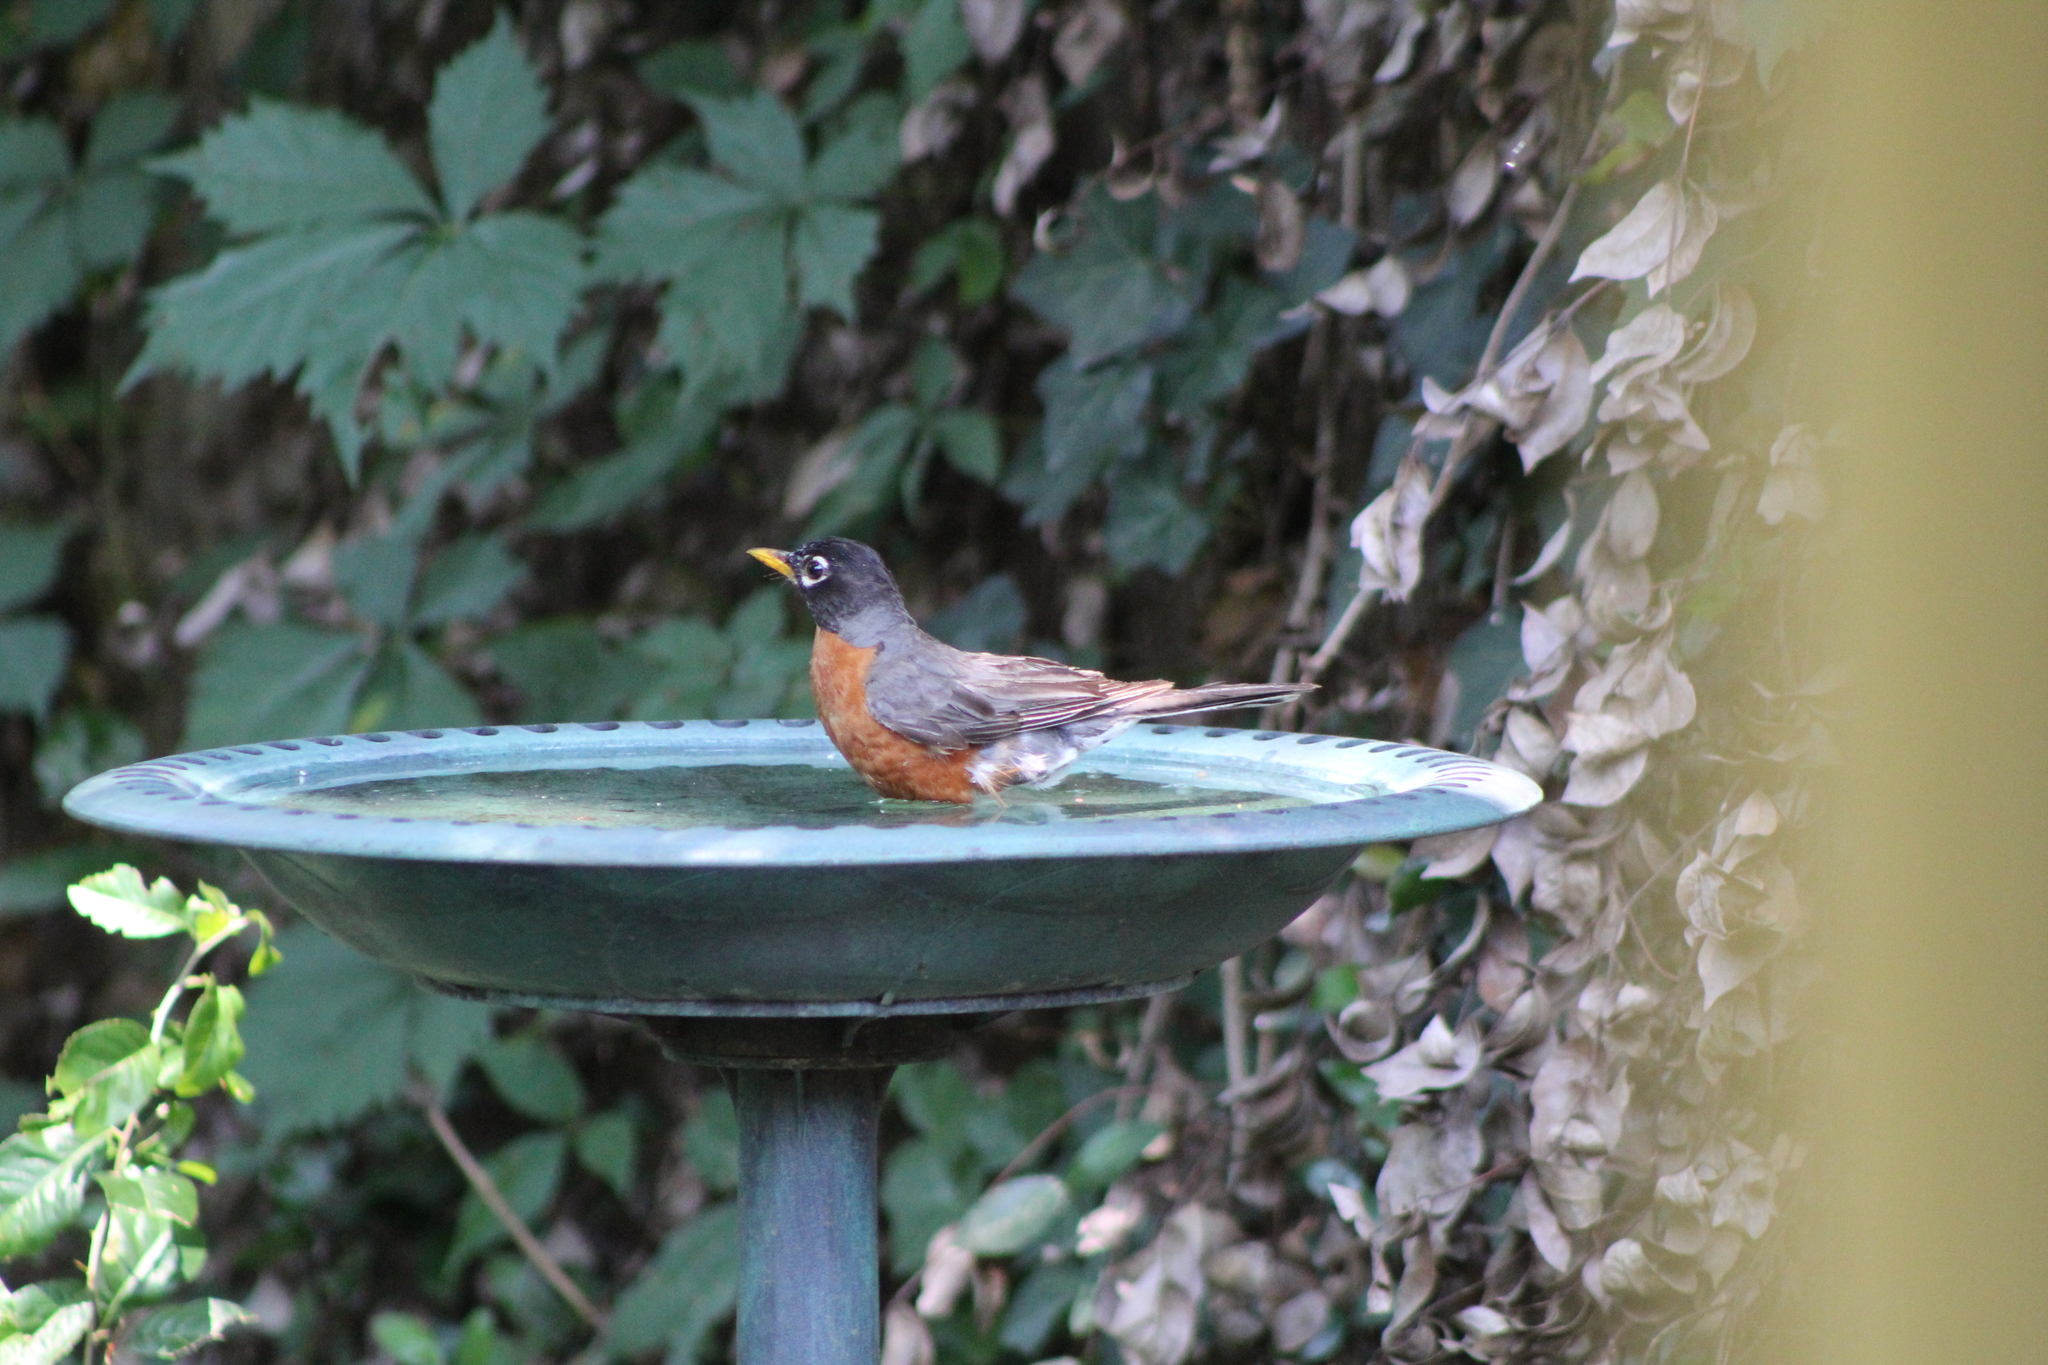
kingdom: Animalia
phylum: Chordata
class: Aves
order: Passeriformes
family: Turdidae
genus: Turdus
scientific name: Turdus migratorius
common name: American robin
